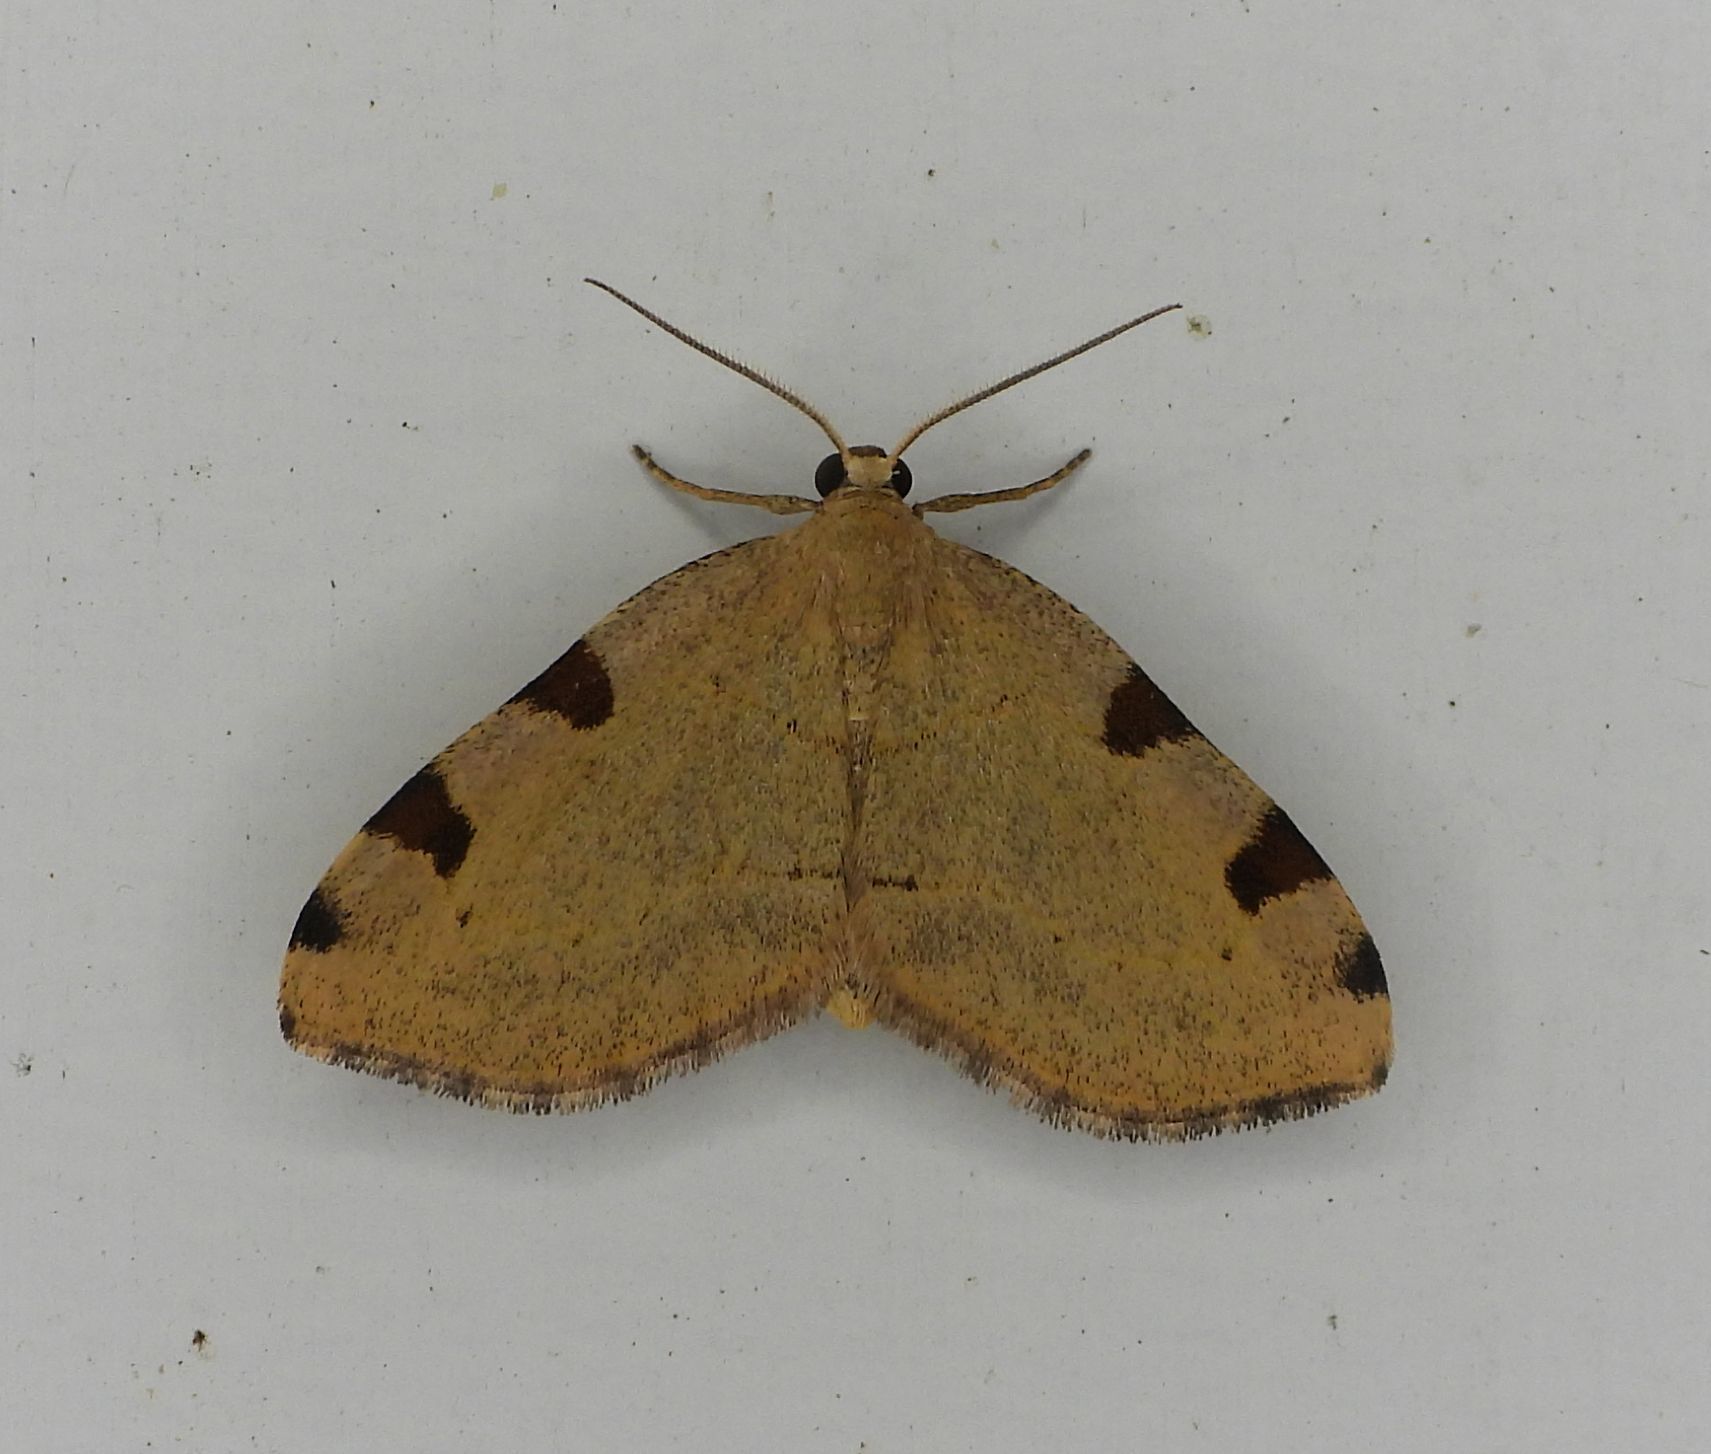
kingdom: Animalia
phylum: Arthropoda
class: Insecta
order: Lepidoptera
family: Geometridae
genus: Heterophleps
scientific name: Heterophleps triguttaria
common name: Three-spotted fillip
